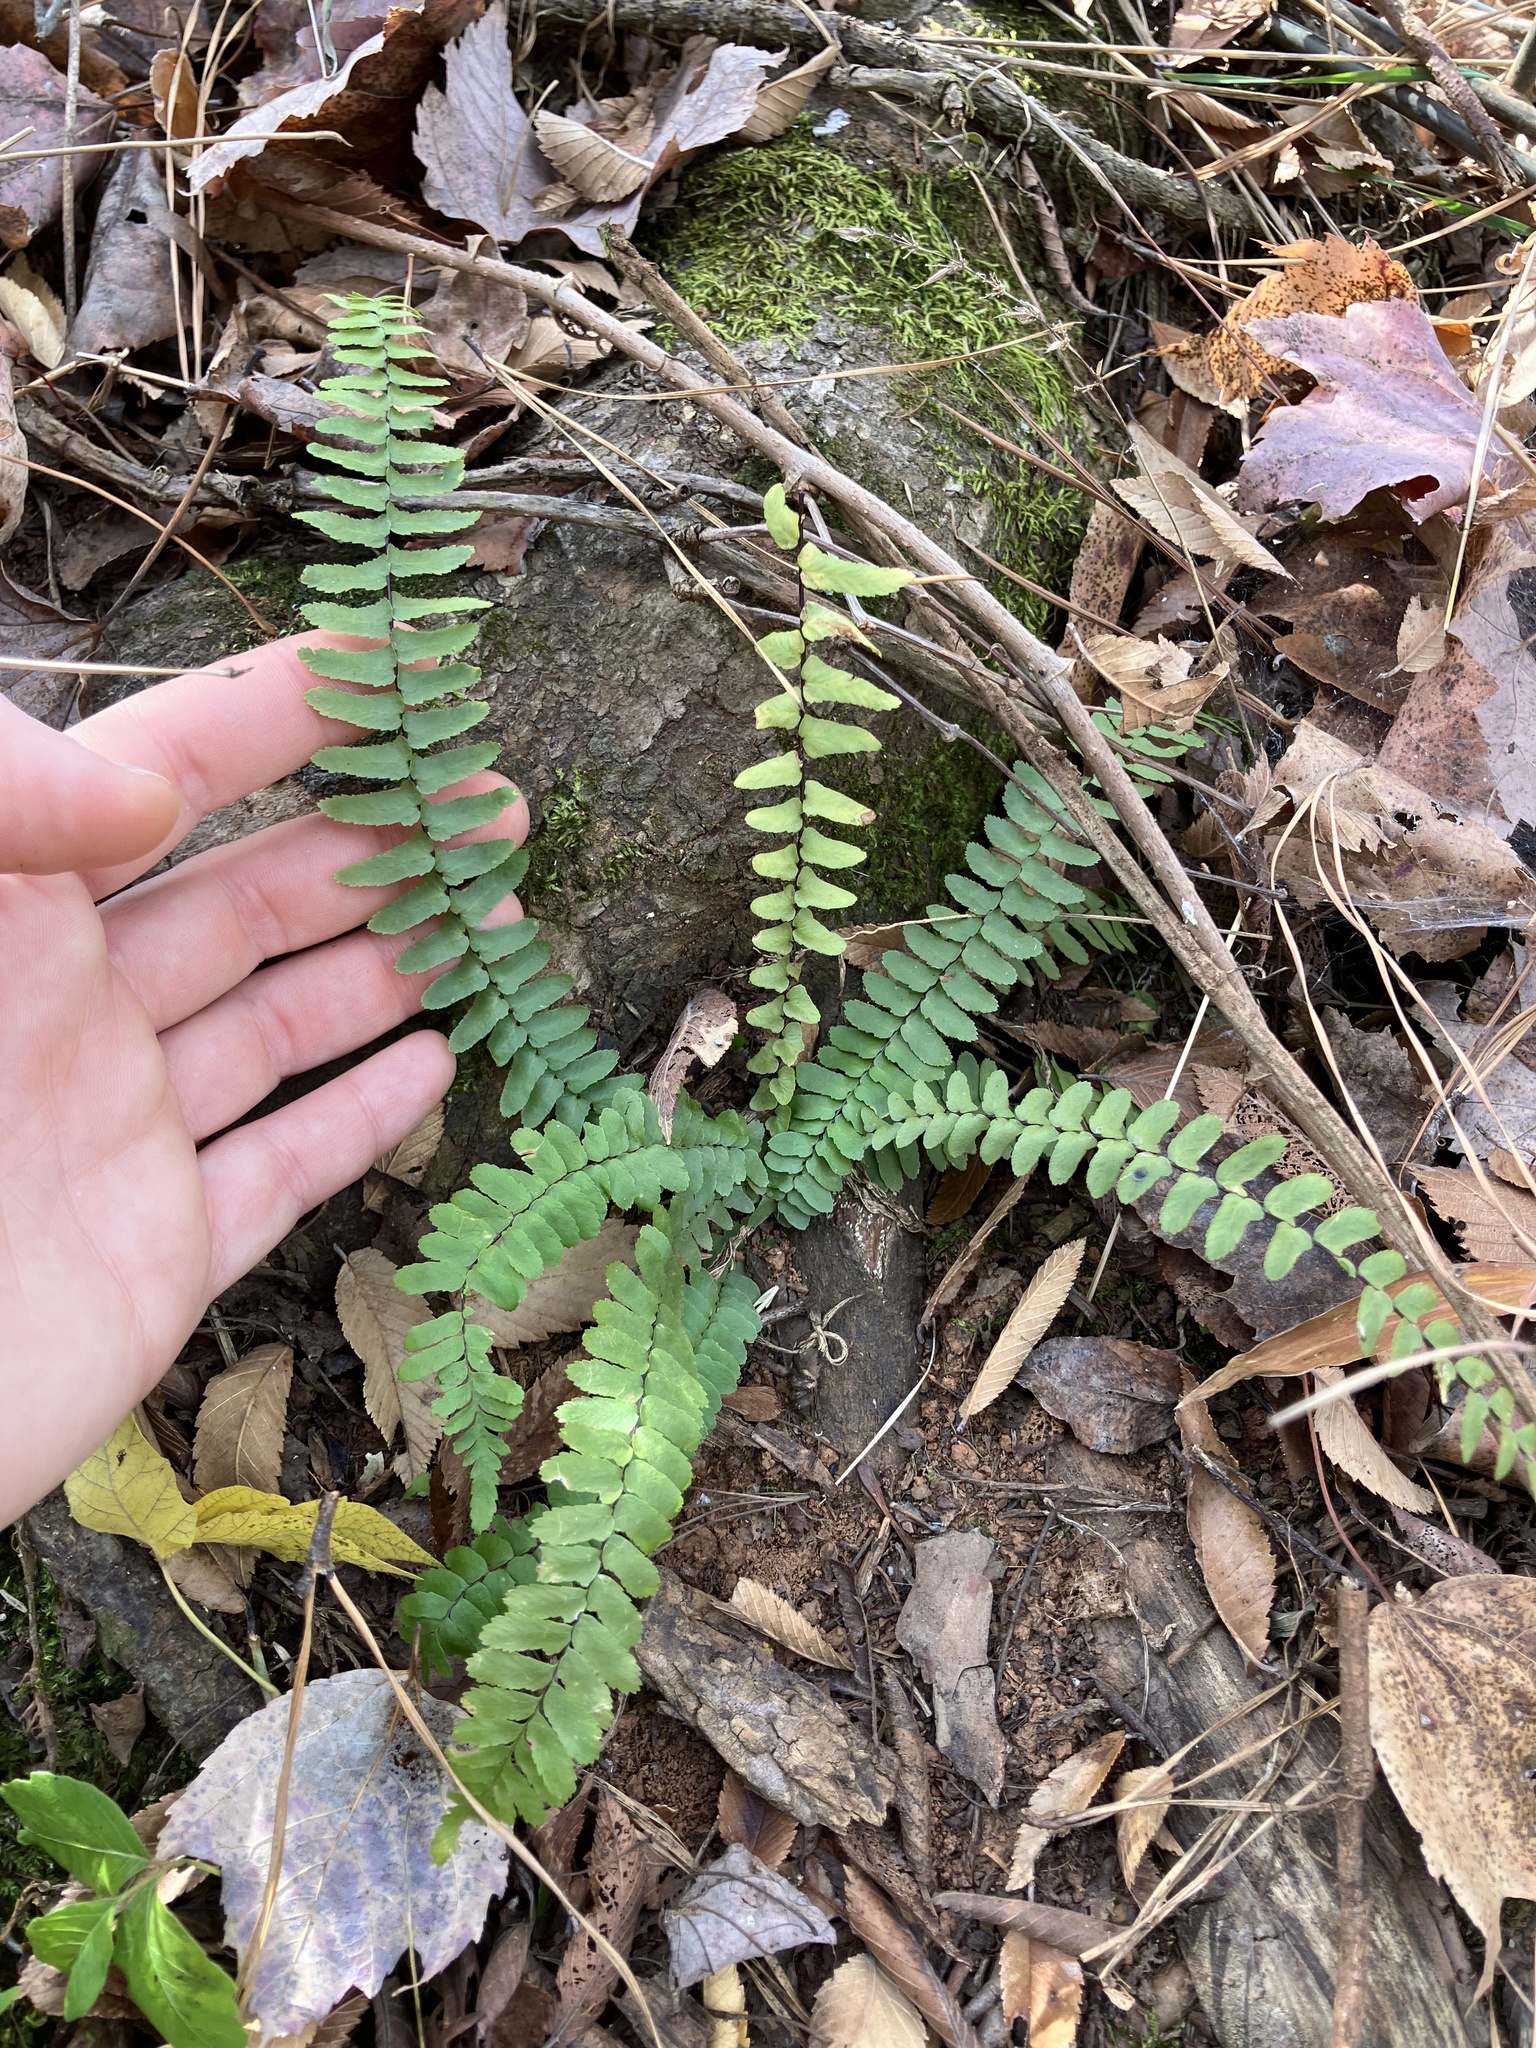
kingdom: Plantae
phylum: Tracheophyta
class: Polypodiopsida
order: Polypodiales
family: Aspleniaceae
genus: Asplenium
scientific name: Asplenium platyneuron
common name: Ebony spleenwort
